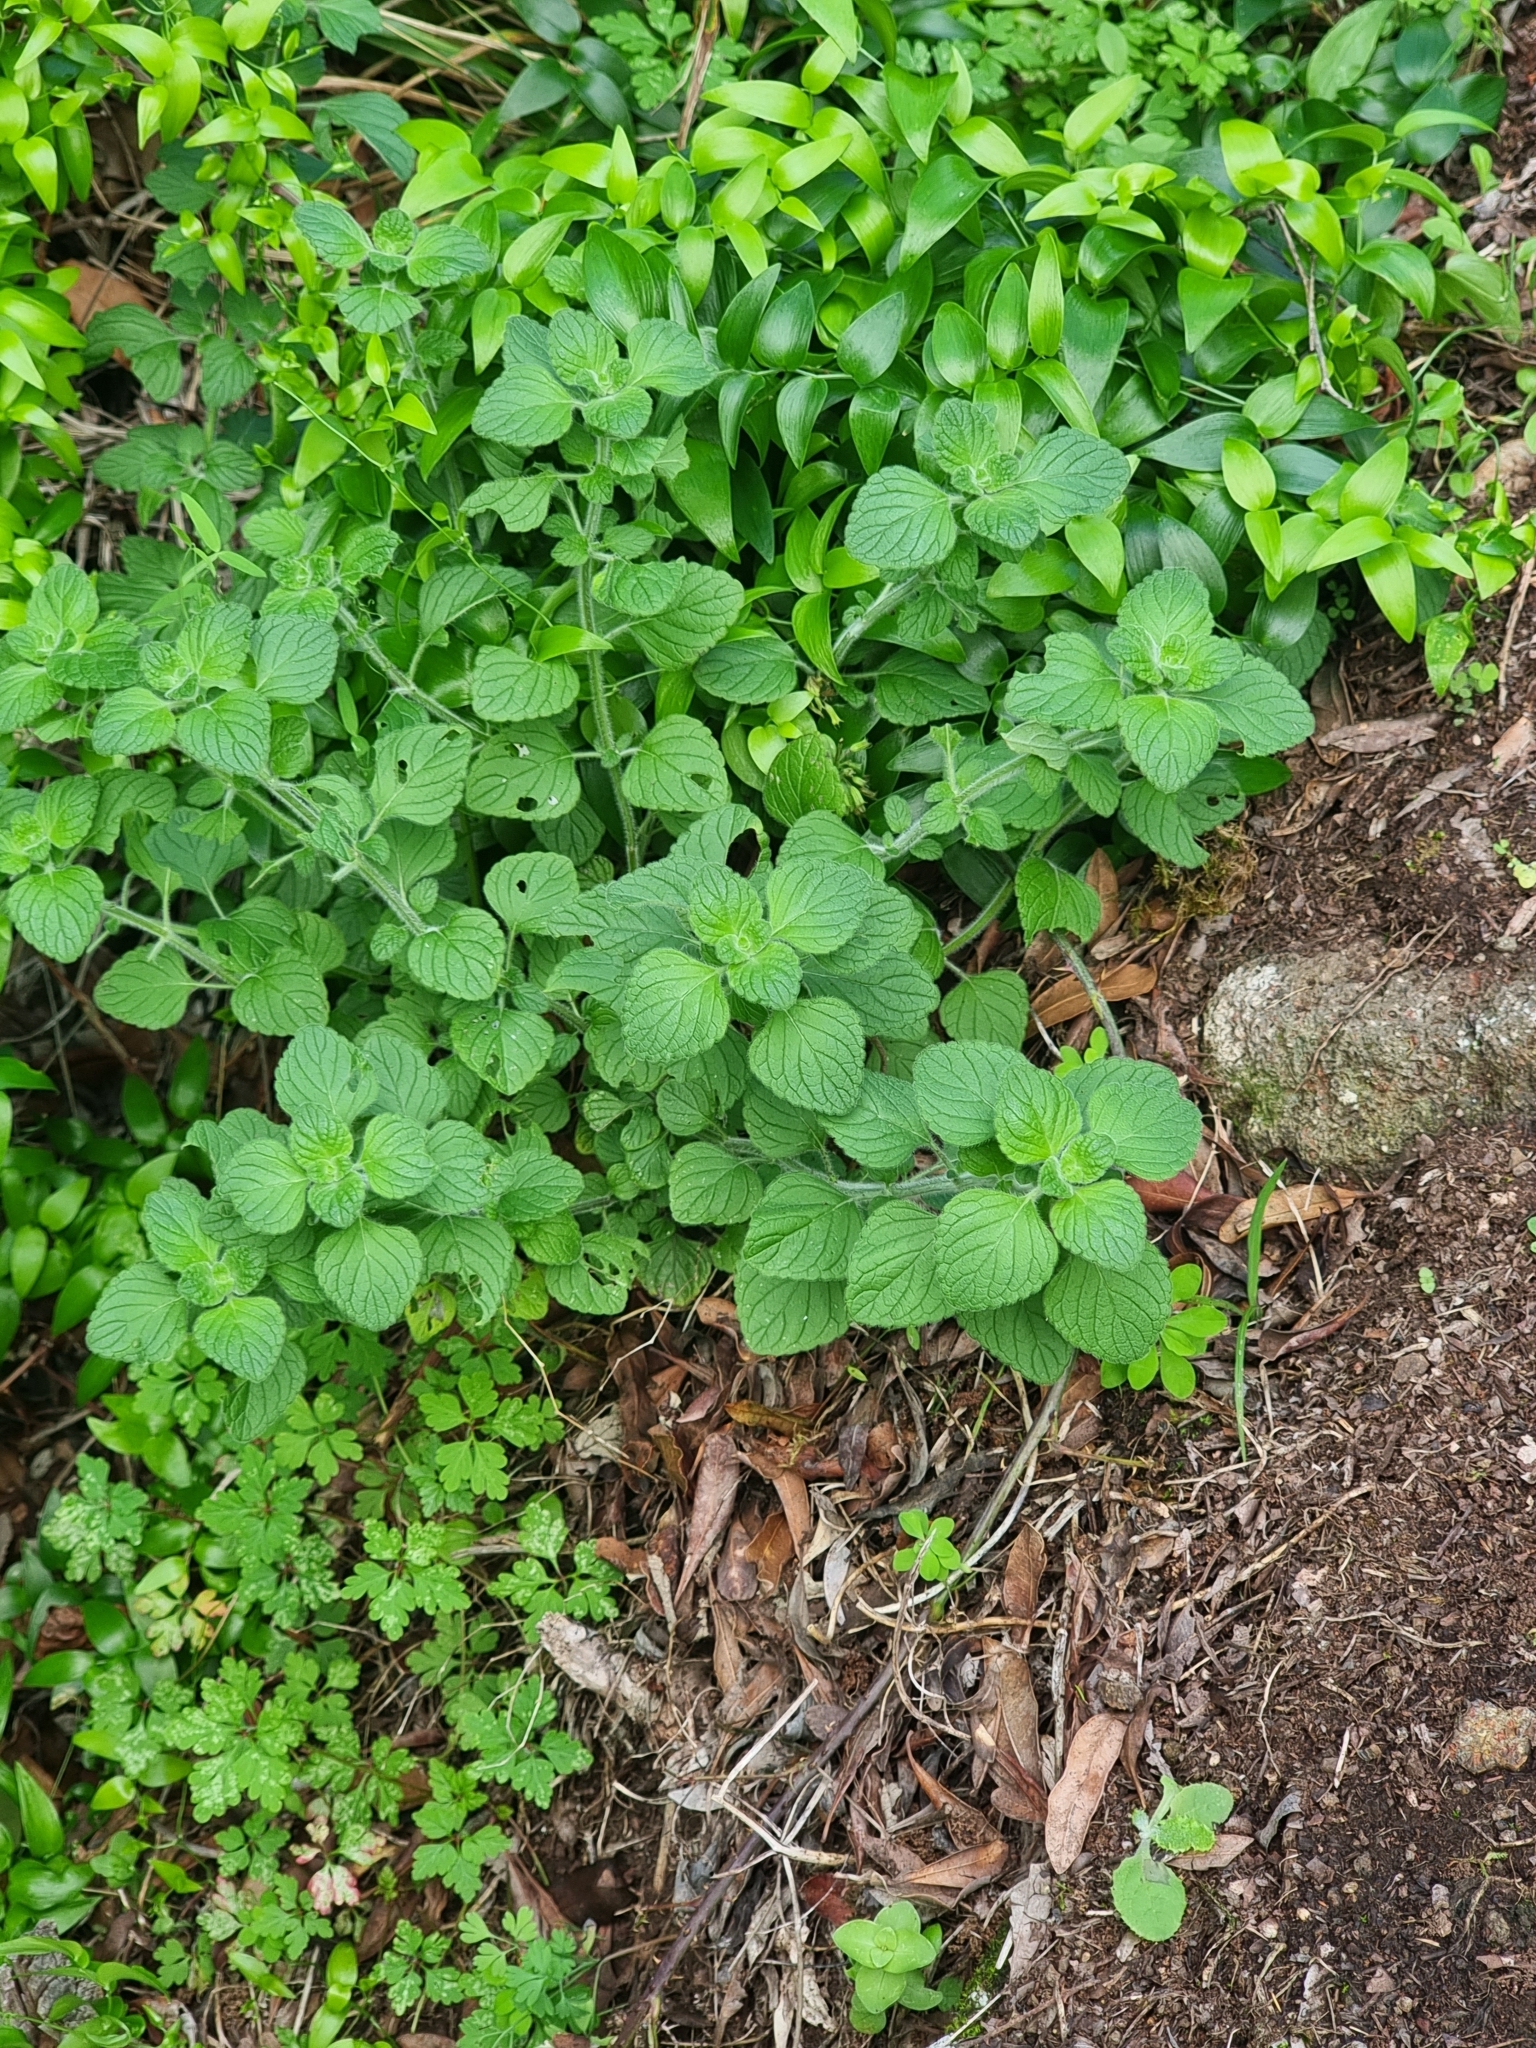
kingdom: Plantae
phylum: Tracheophyta
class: Magnoliopsida
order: Lamiales
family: Lamiaceae
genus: Clinopodium
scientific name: Clinopodium menthifolium
